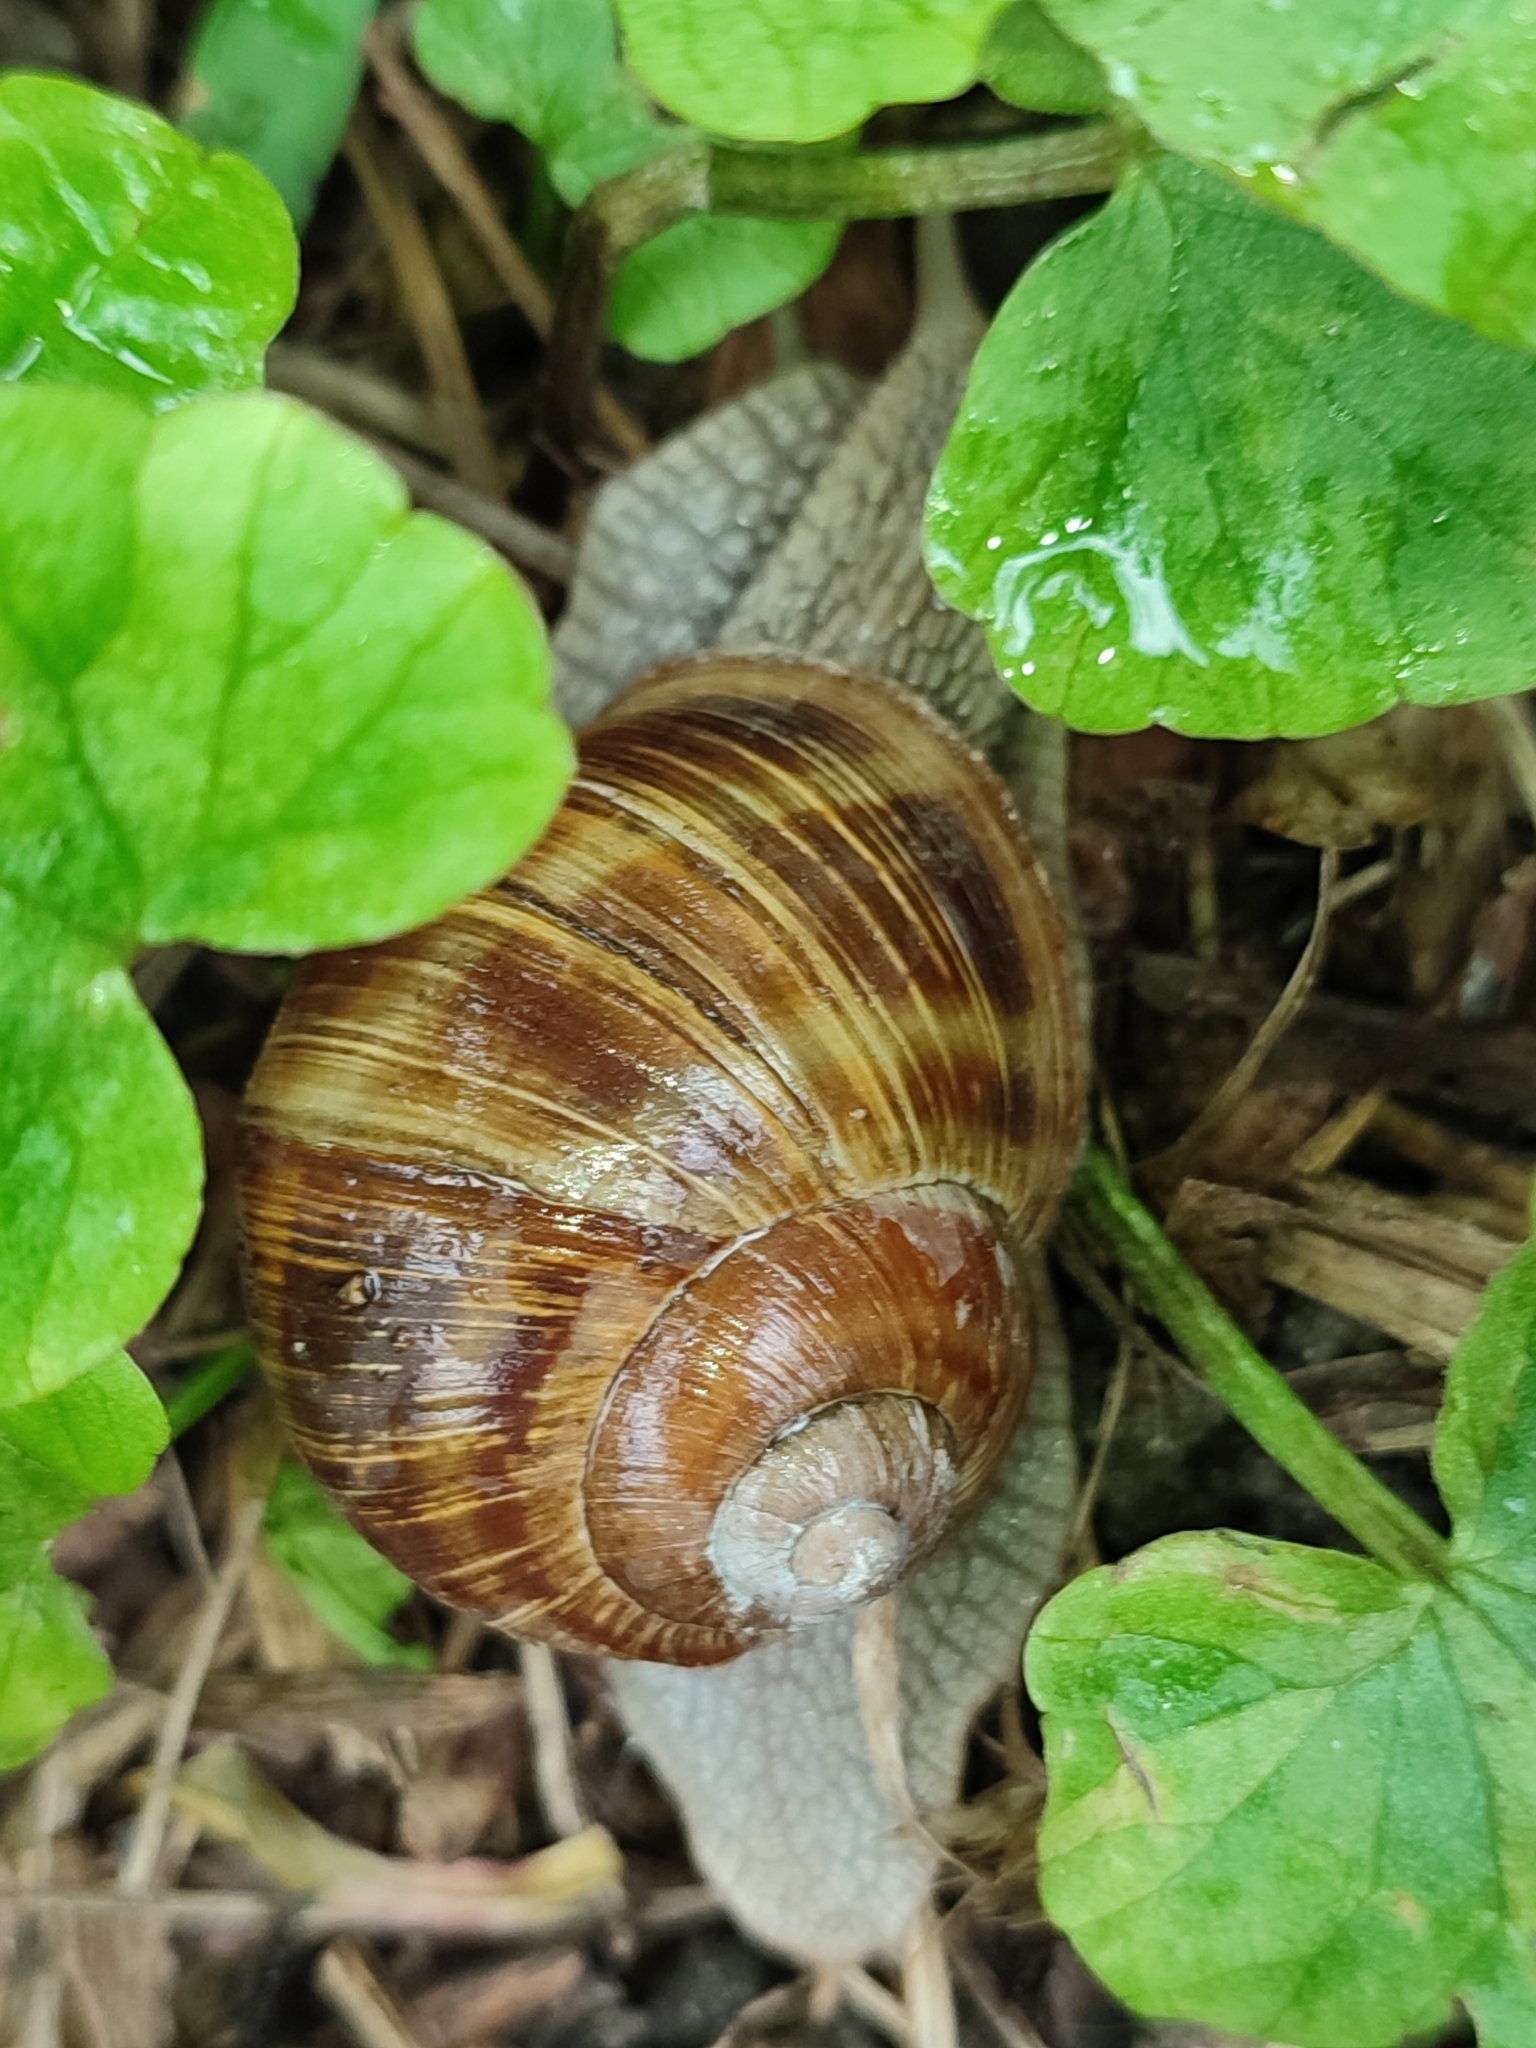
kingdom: Animalia
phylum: Mollusca
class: Gastropoda
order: Stylommatophora
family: Helicidae
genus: Helix
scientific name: Helix pomatia
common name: Roman snail
